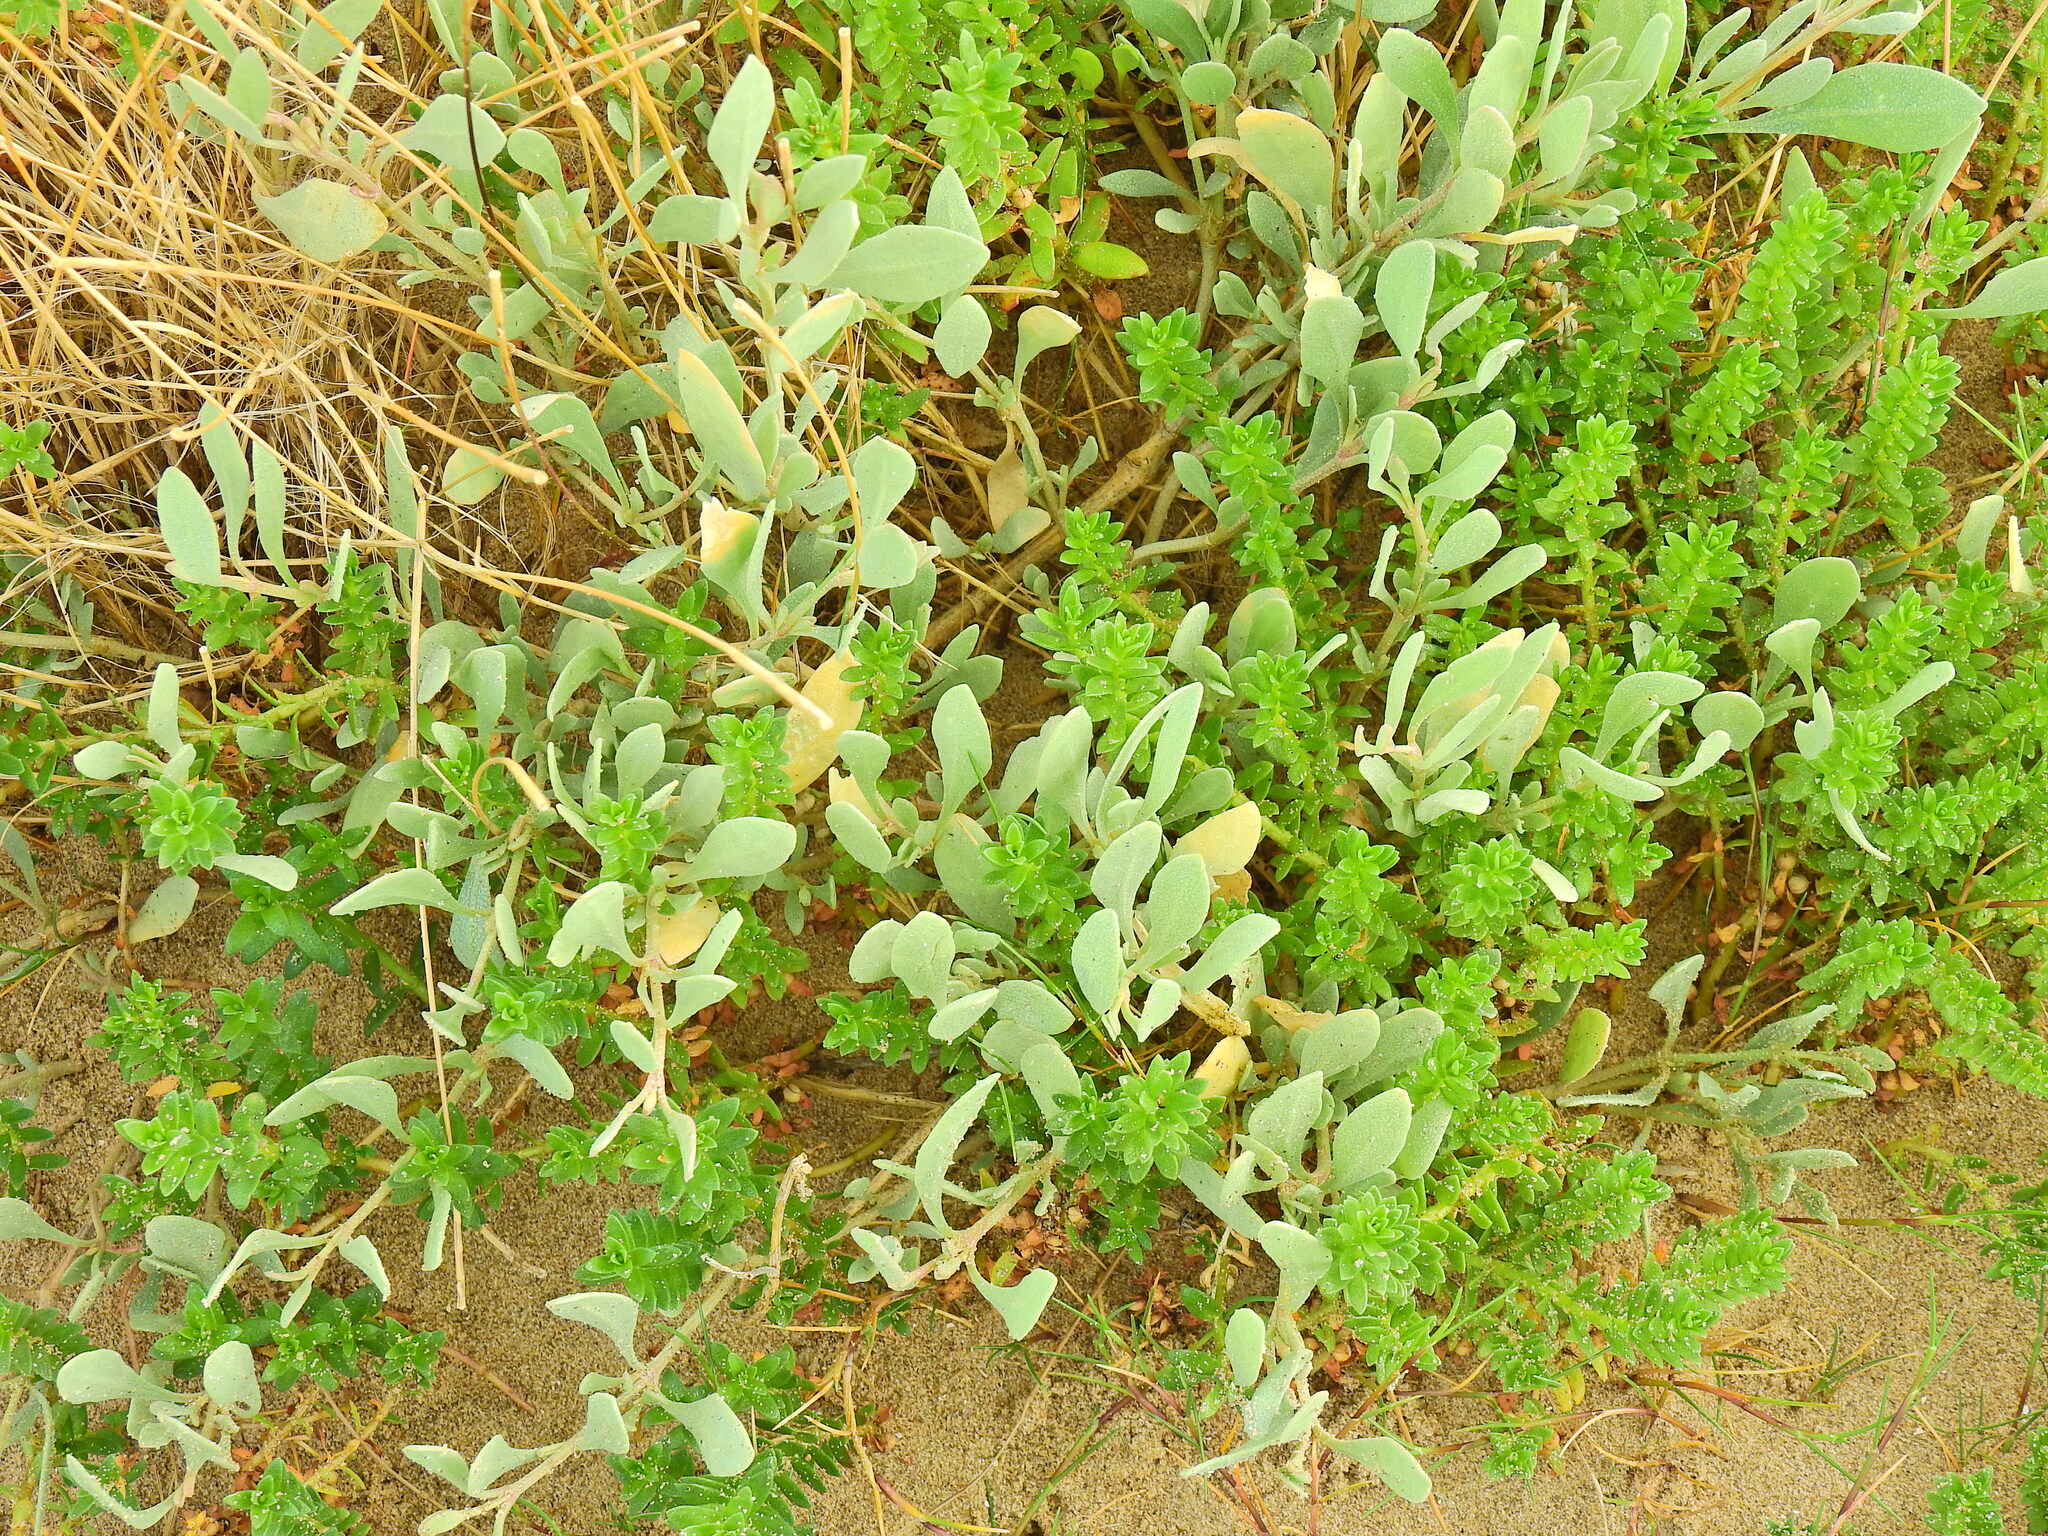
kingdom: Plantae
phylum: Tracheophyta
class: Magnoliopsida
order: Caryophyllales
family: Amaranthaceae
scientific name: Amaranthaceae
